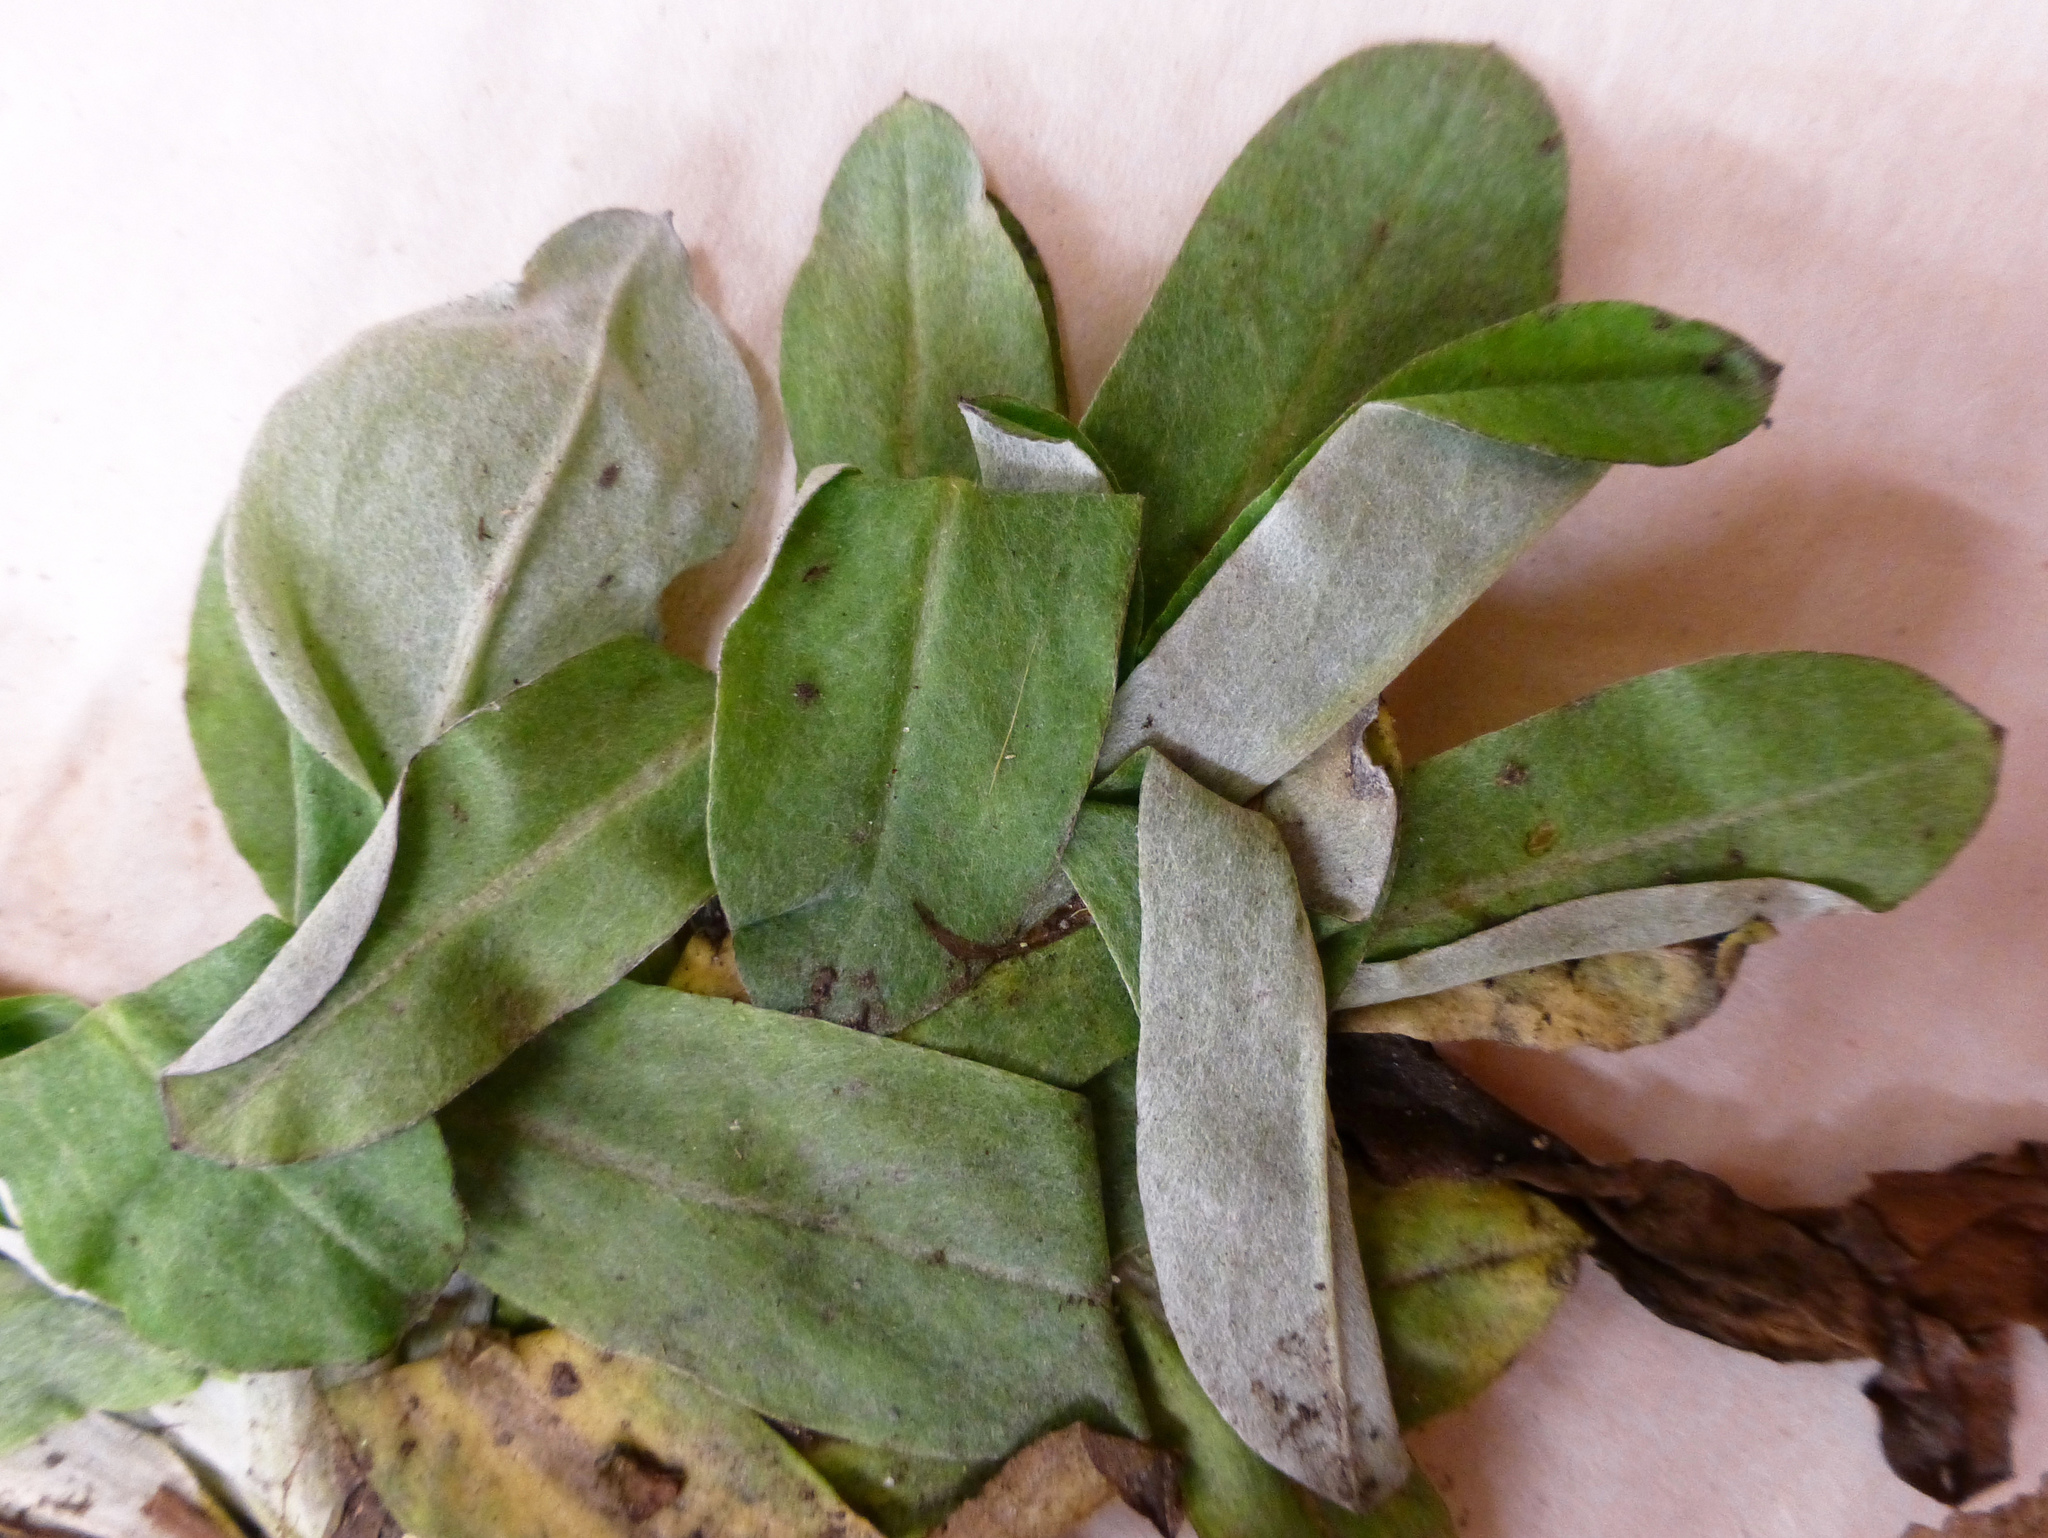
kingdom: Plantae
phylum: Tracheophyta
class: Magnoliopsida
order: Asterales
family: Asteraceae
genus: Gamochaeta
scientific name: Gamochaeta americana
